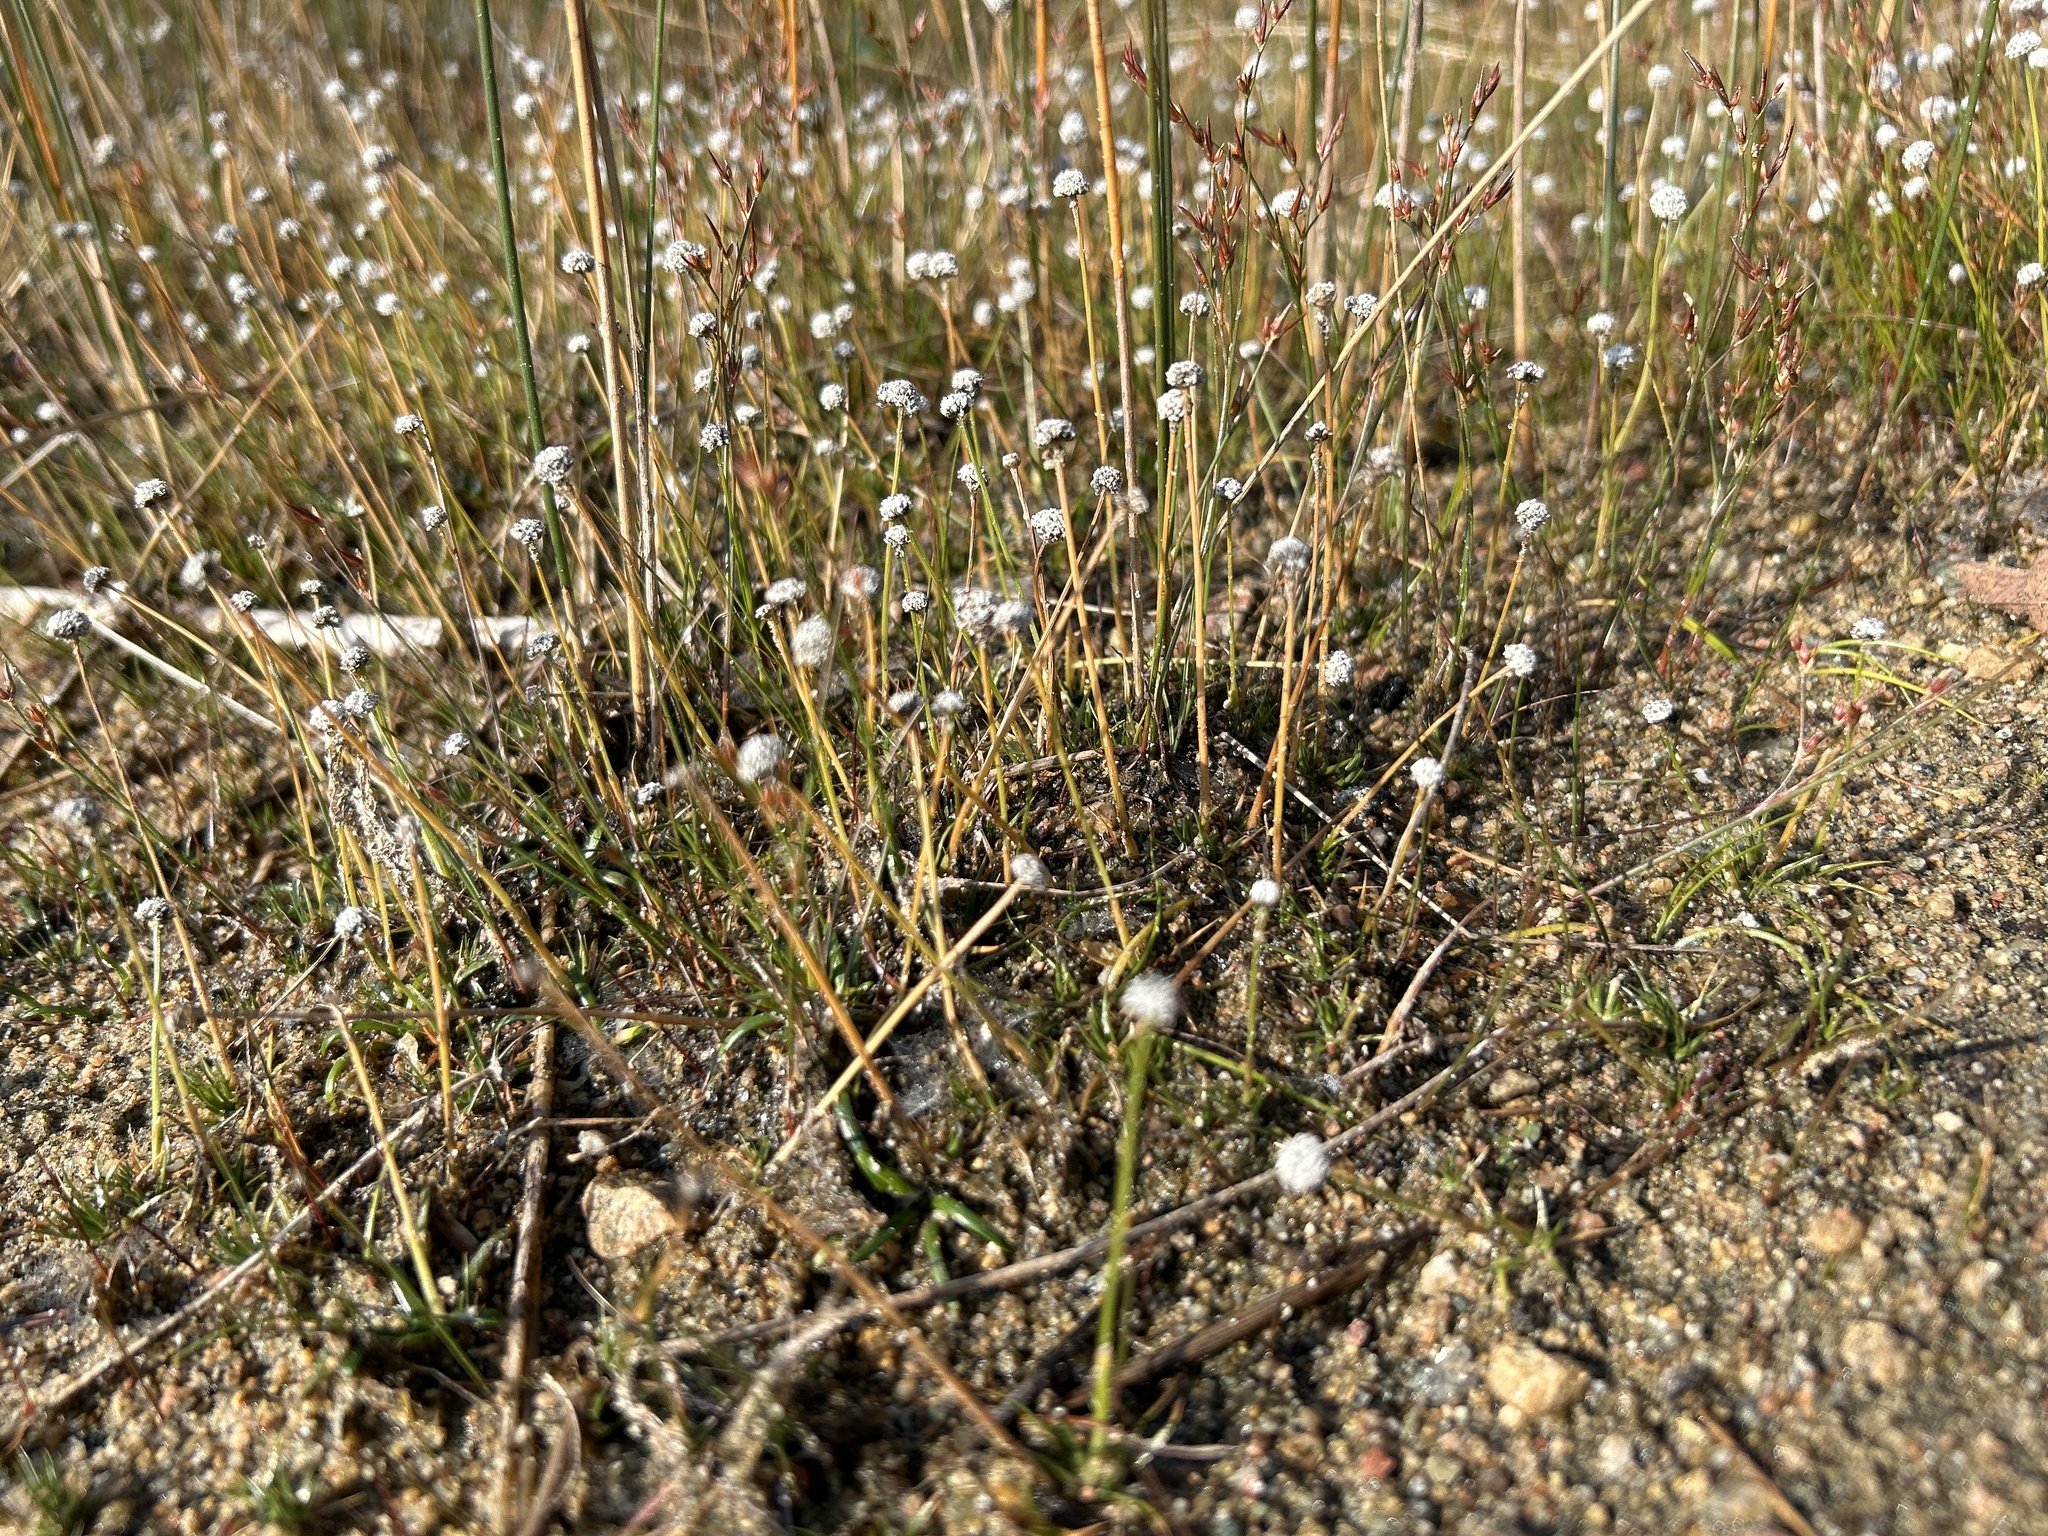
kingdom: Plantae
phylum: Tracheophyta
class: Liliopsida
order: Poales
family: Eriocaulaceae
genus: Eriocaulon
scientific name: Eriocaulon aquaticum
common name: Pipewort
